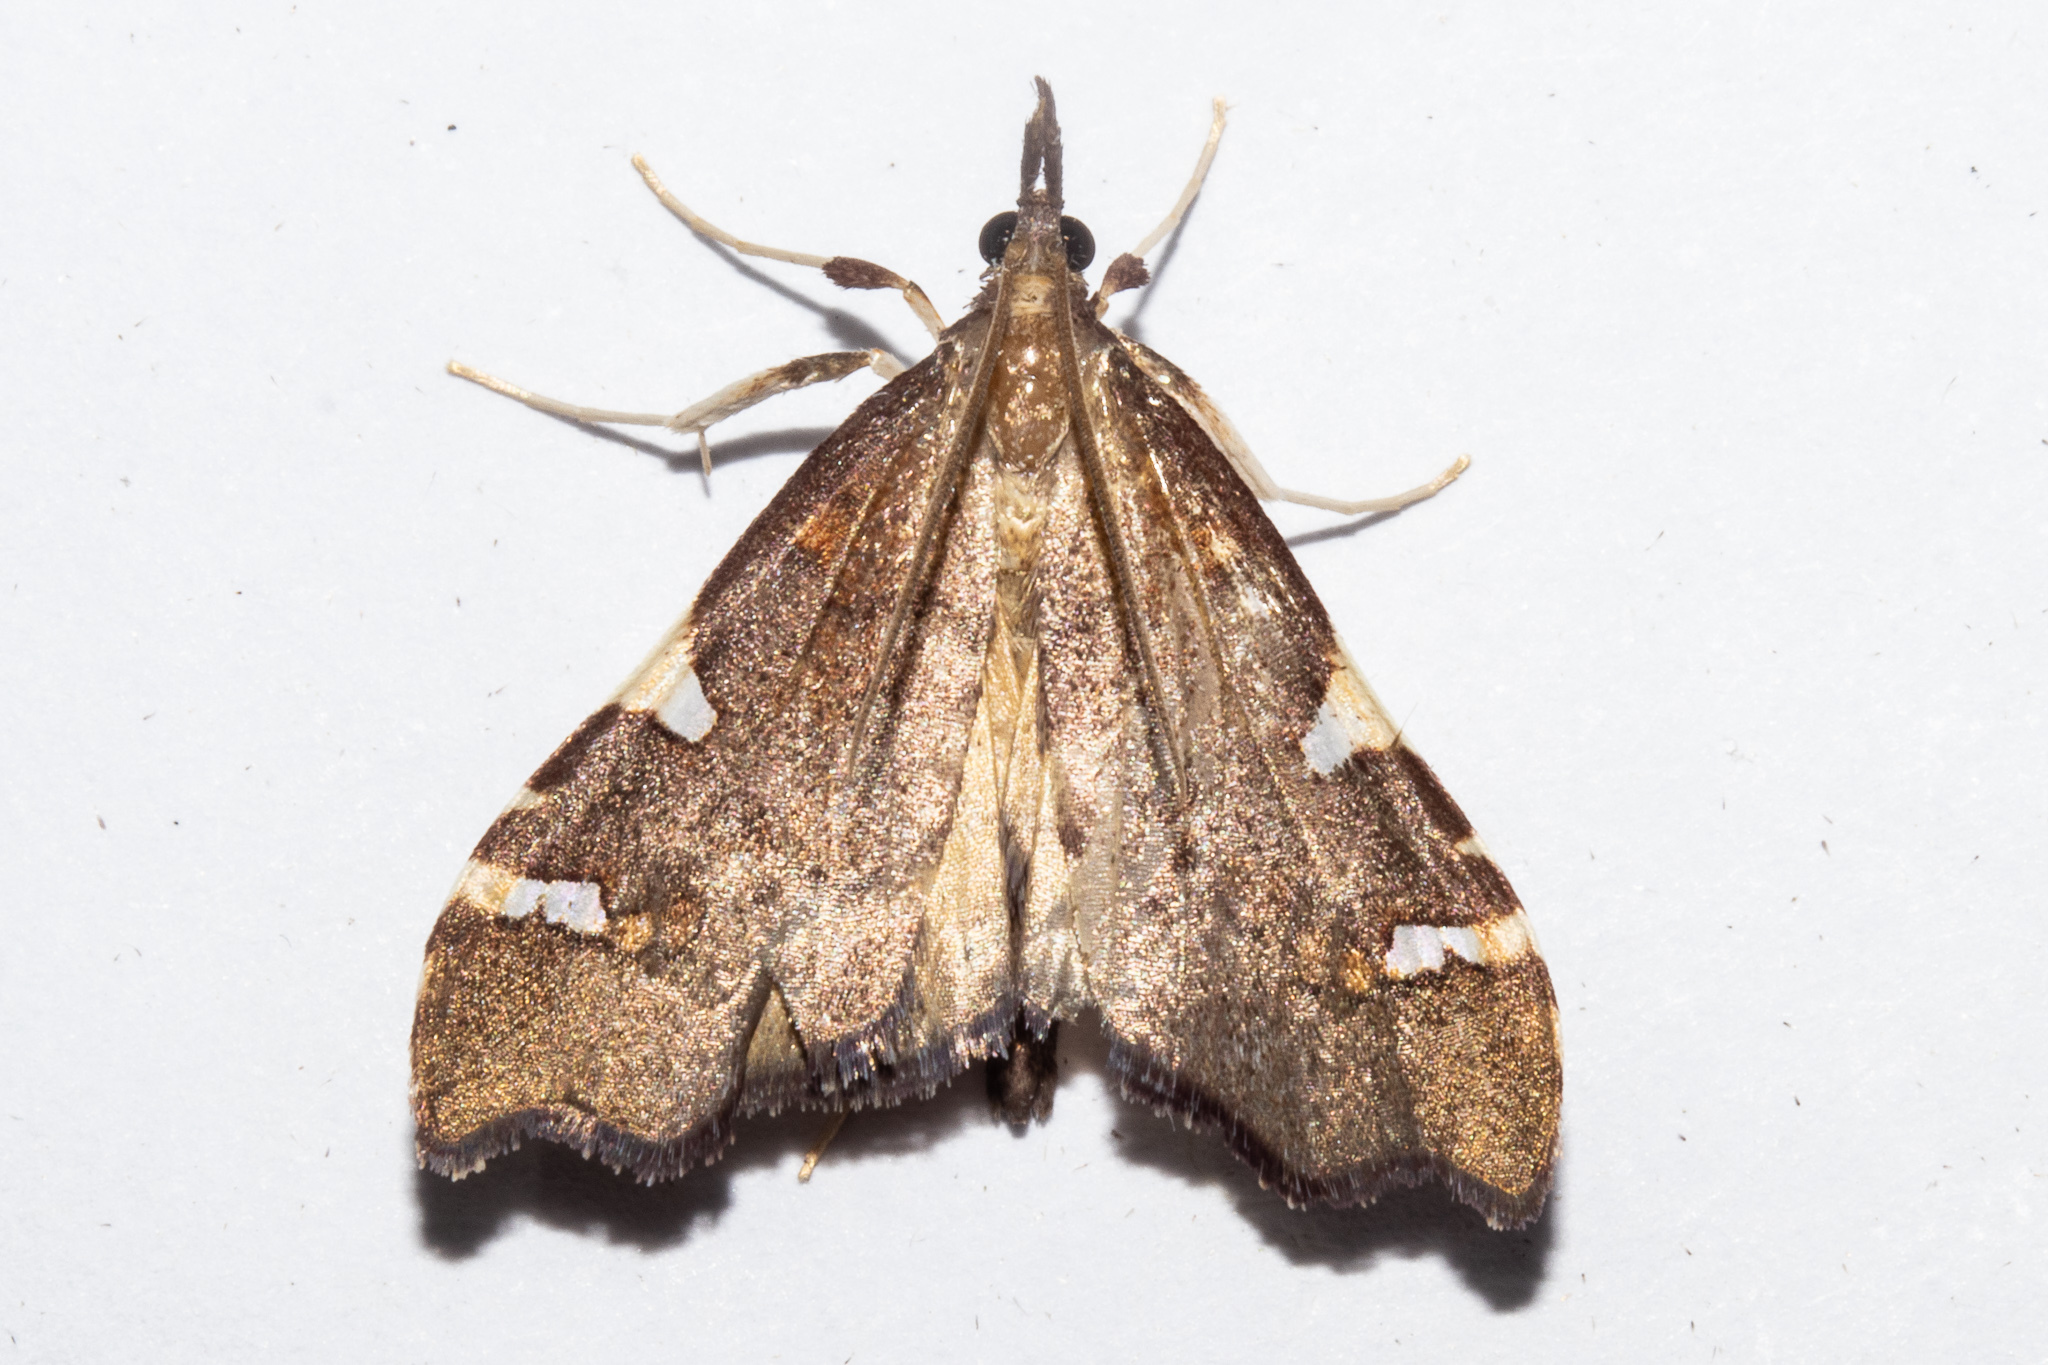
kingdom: Animalia
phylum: Arthropoda
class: Insecta
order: Lepidoptera
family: Crambidae
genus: Deana
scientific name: Deana hybreasalis
